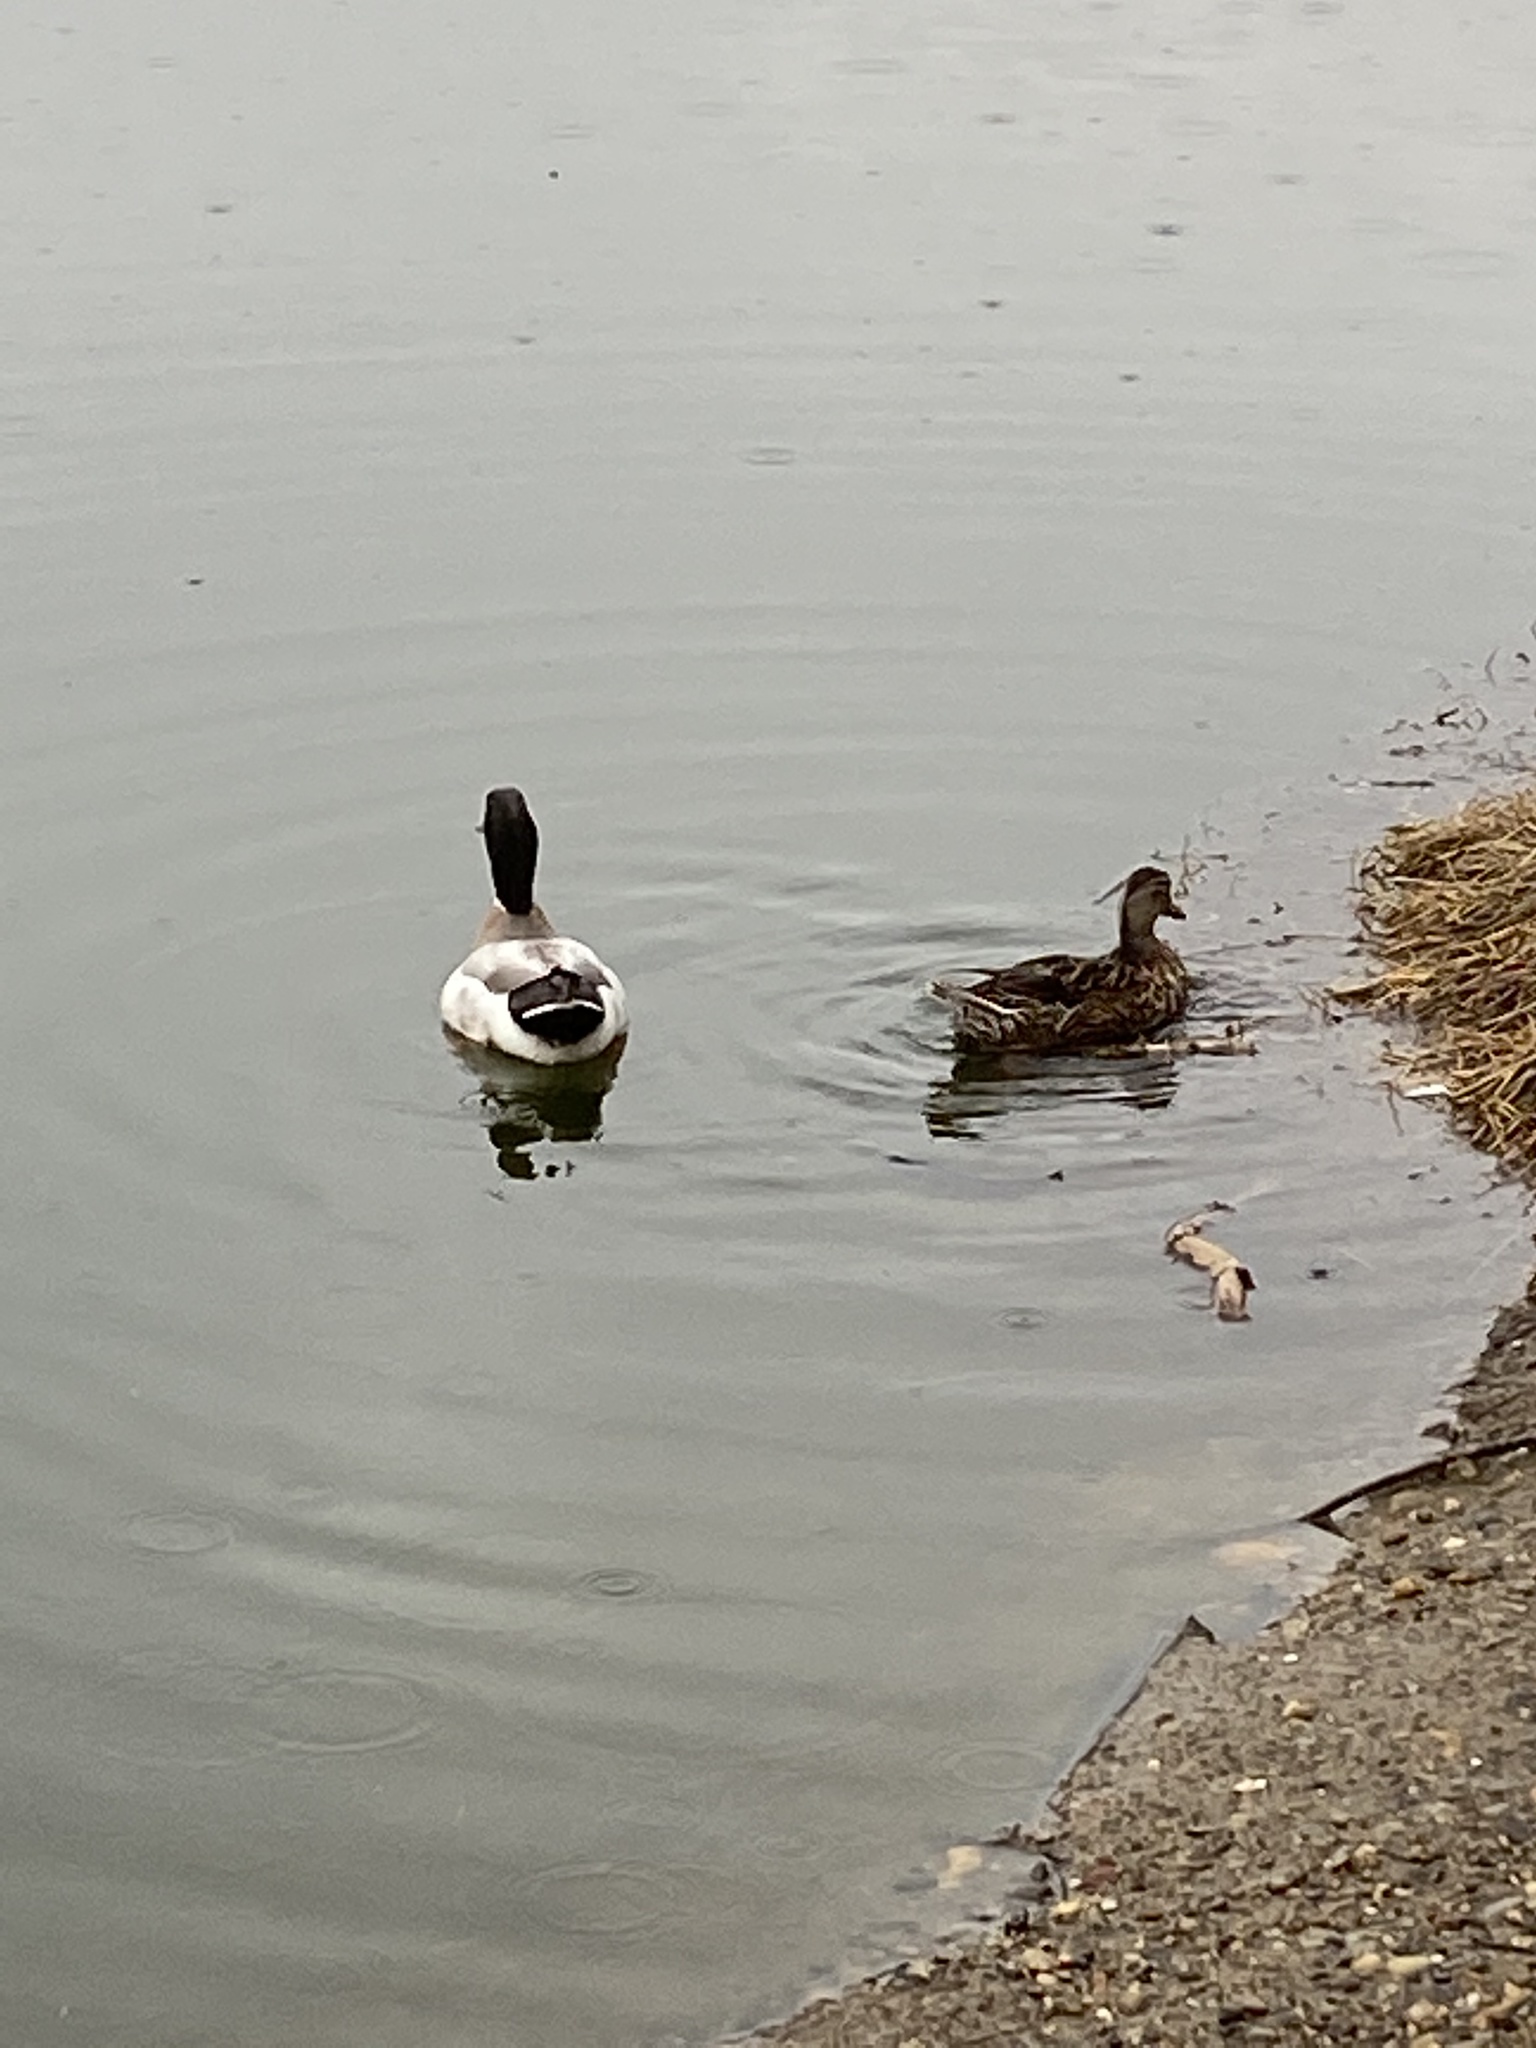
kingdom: Animalia
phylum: Chordata
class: Aves
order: Anseriformes
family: Anatidae
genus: Anas
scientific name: Anas platyrhynchos
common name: Mallard
